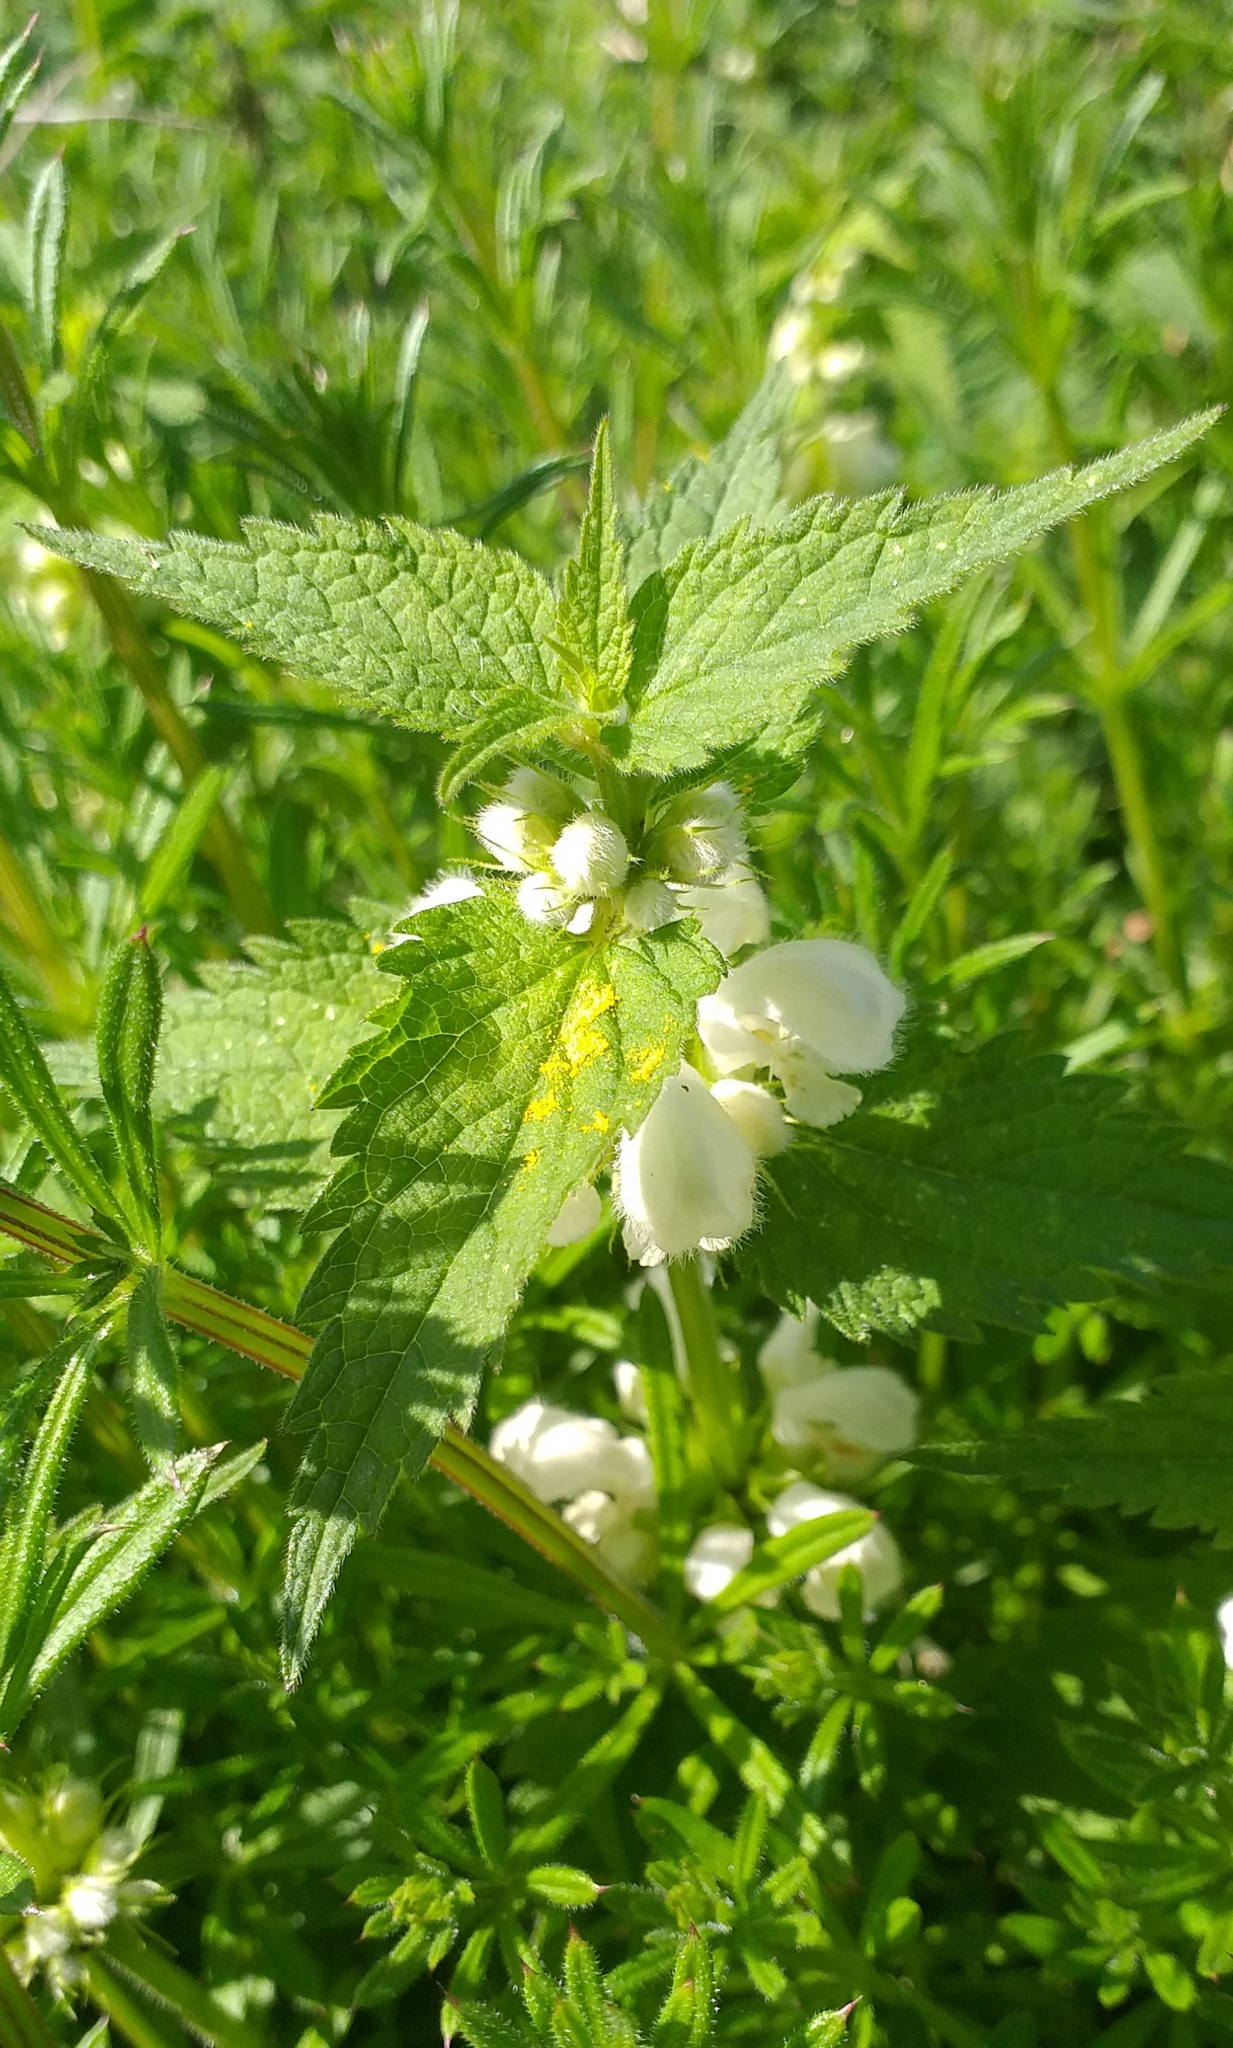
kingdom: Plantae
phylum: Tracheophyta
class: Magnoliopsida
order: Lamiales
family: Lamiaceae
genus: Lamium
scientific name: Lamium album
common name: White dead-nettle
